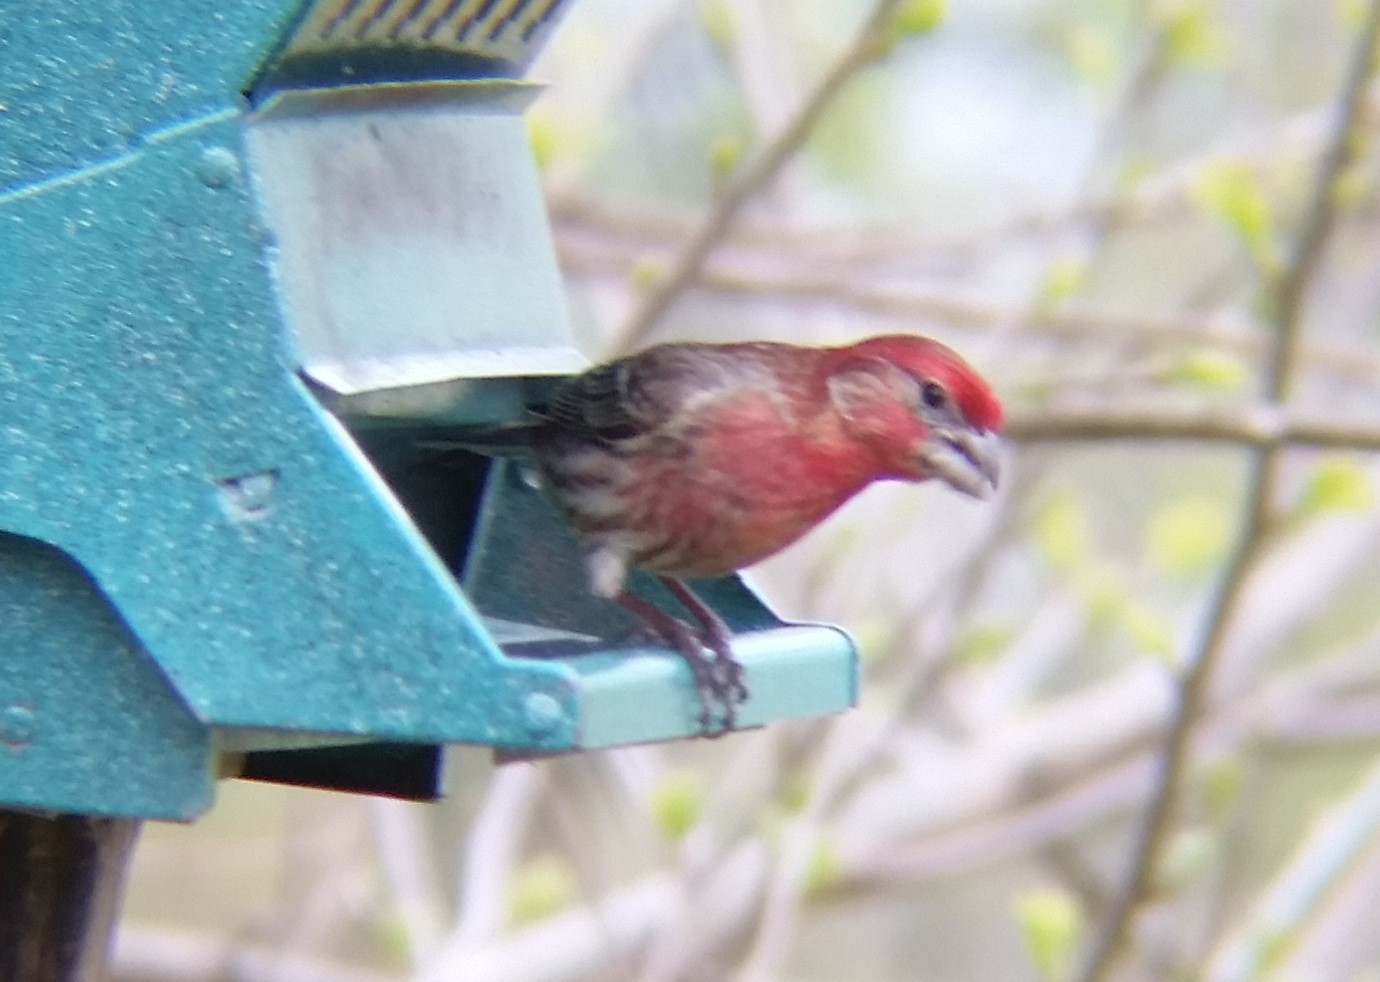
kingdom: Animalia
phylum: Chordata
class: Aves
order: Passeriformes
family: Fringillidae
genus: Haemorhous
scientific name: Haemorhous mexicanus
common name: House finch
